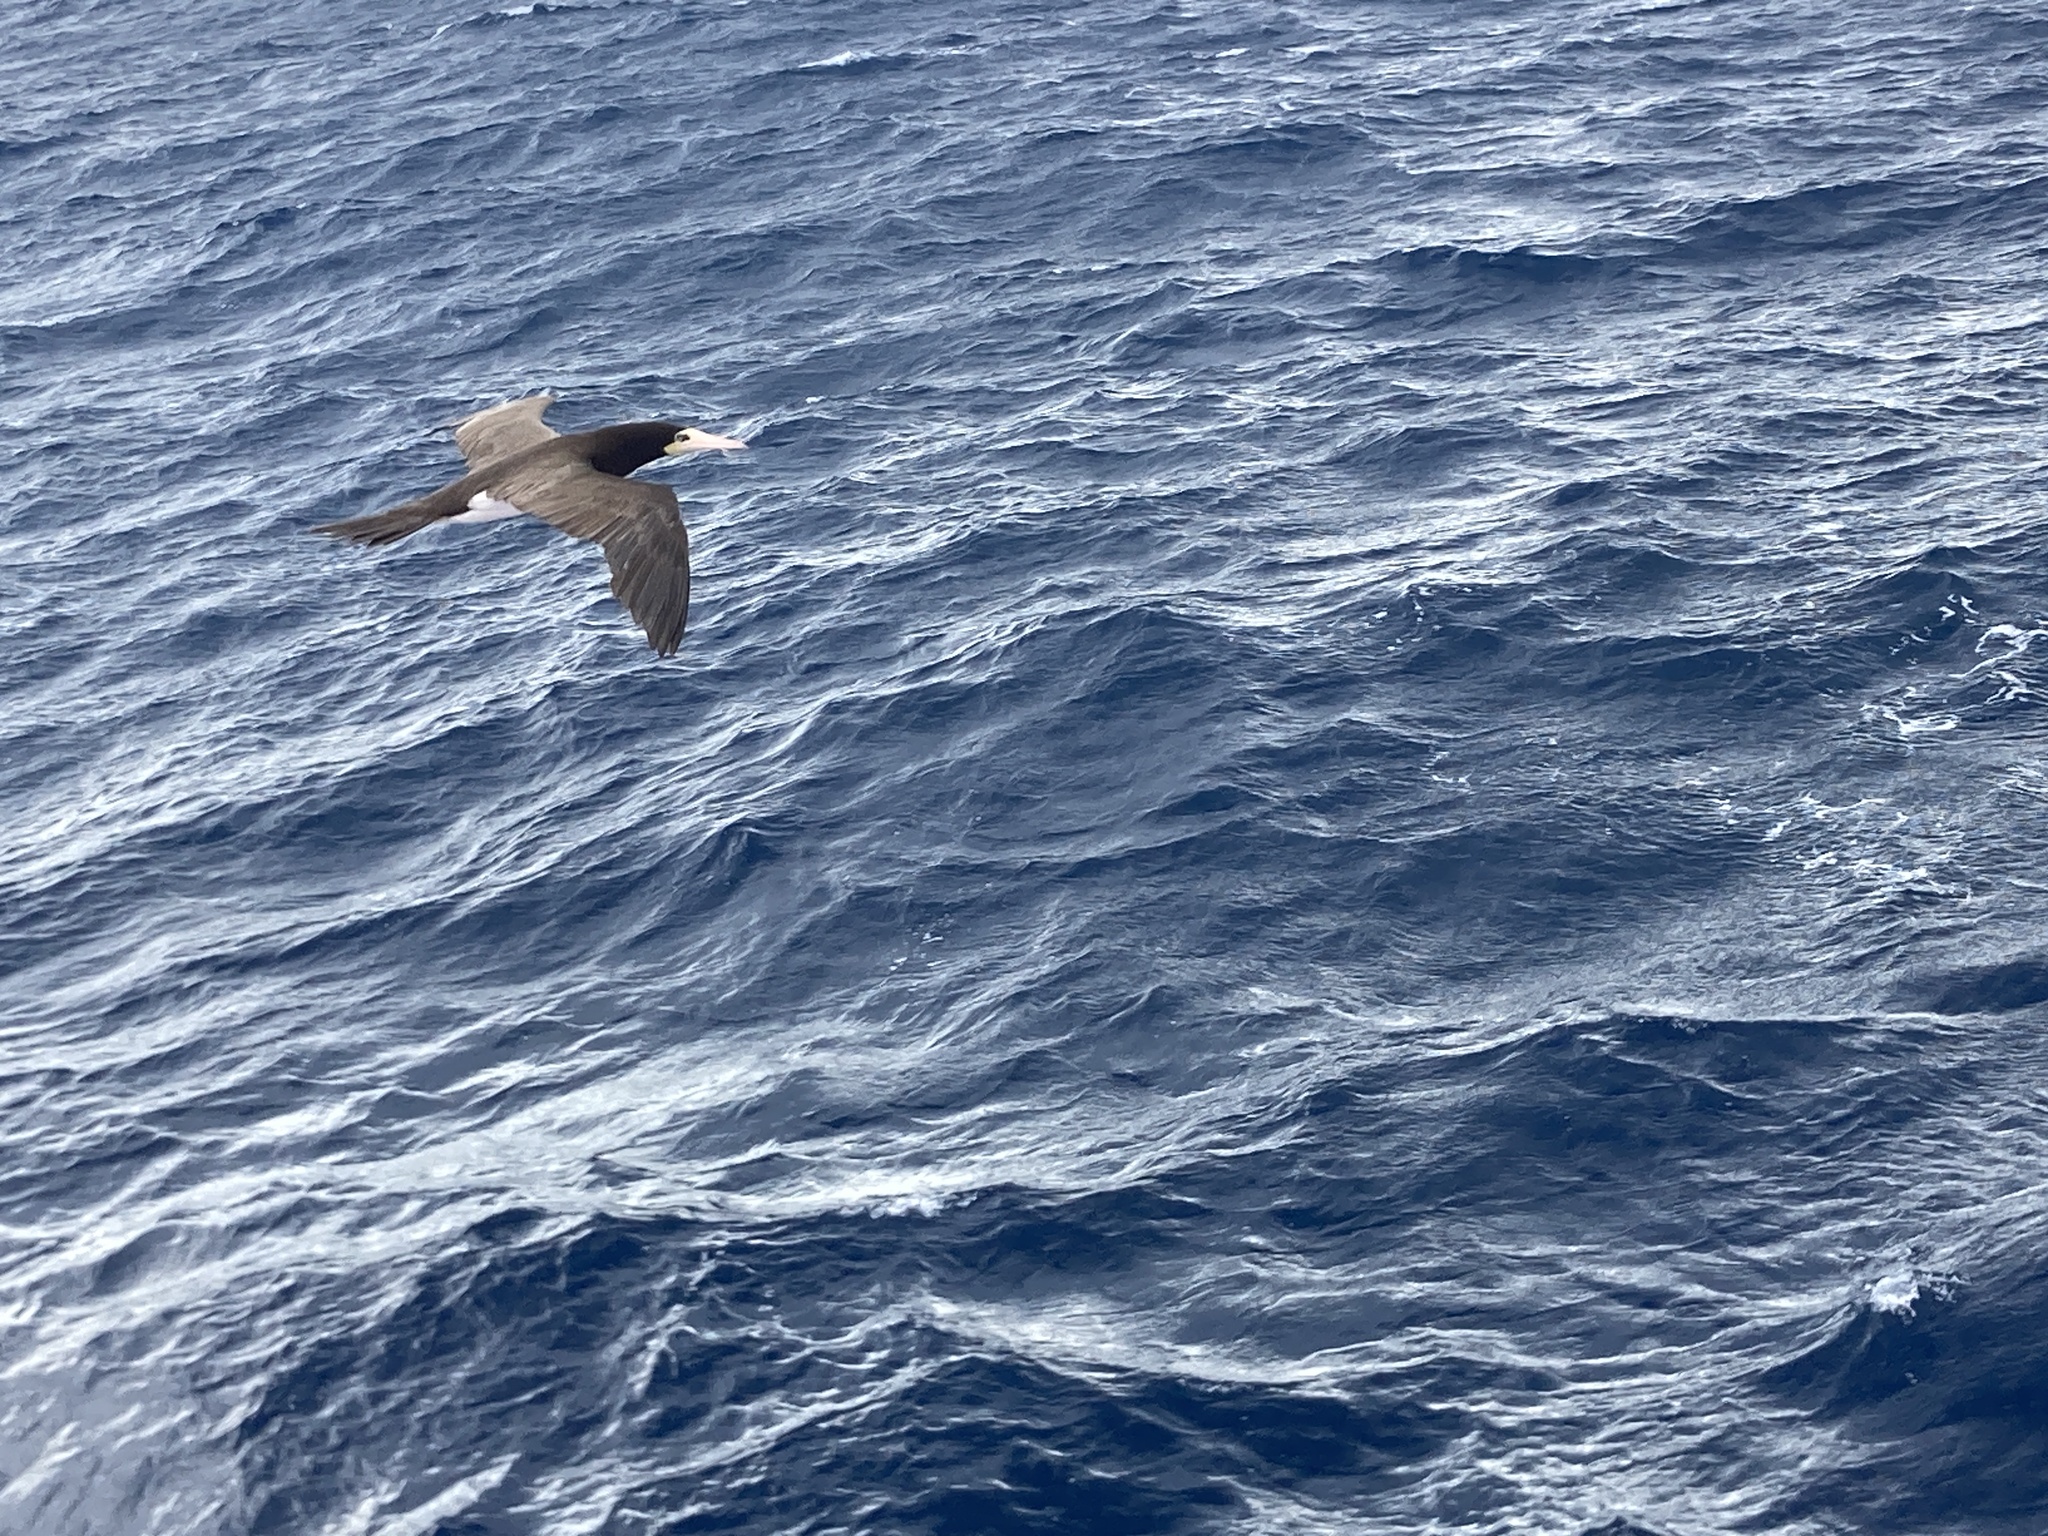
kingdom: Animalia
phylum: Chordata
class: Aves
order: Suliformes
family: Sulidae
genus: Sula
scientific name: Sula leucogaster
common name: Brown booby
